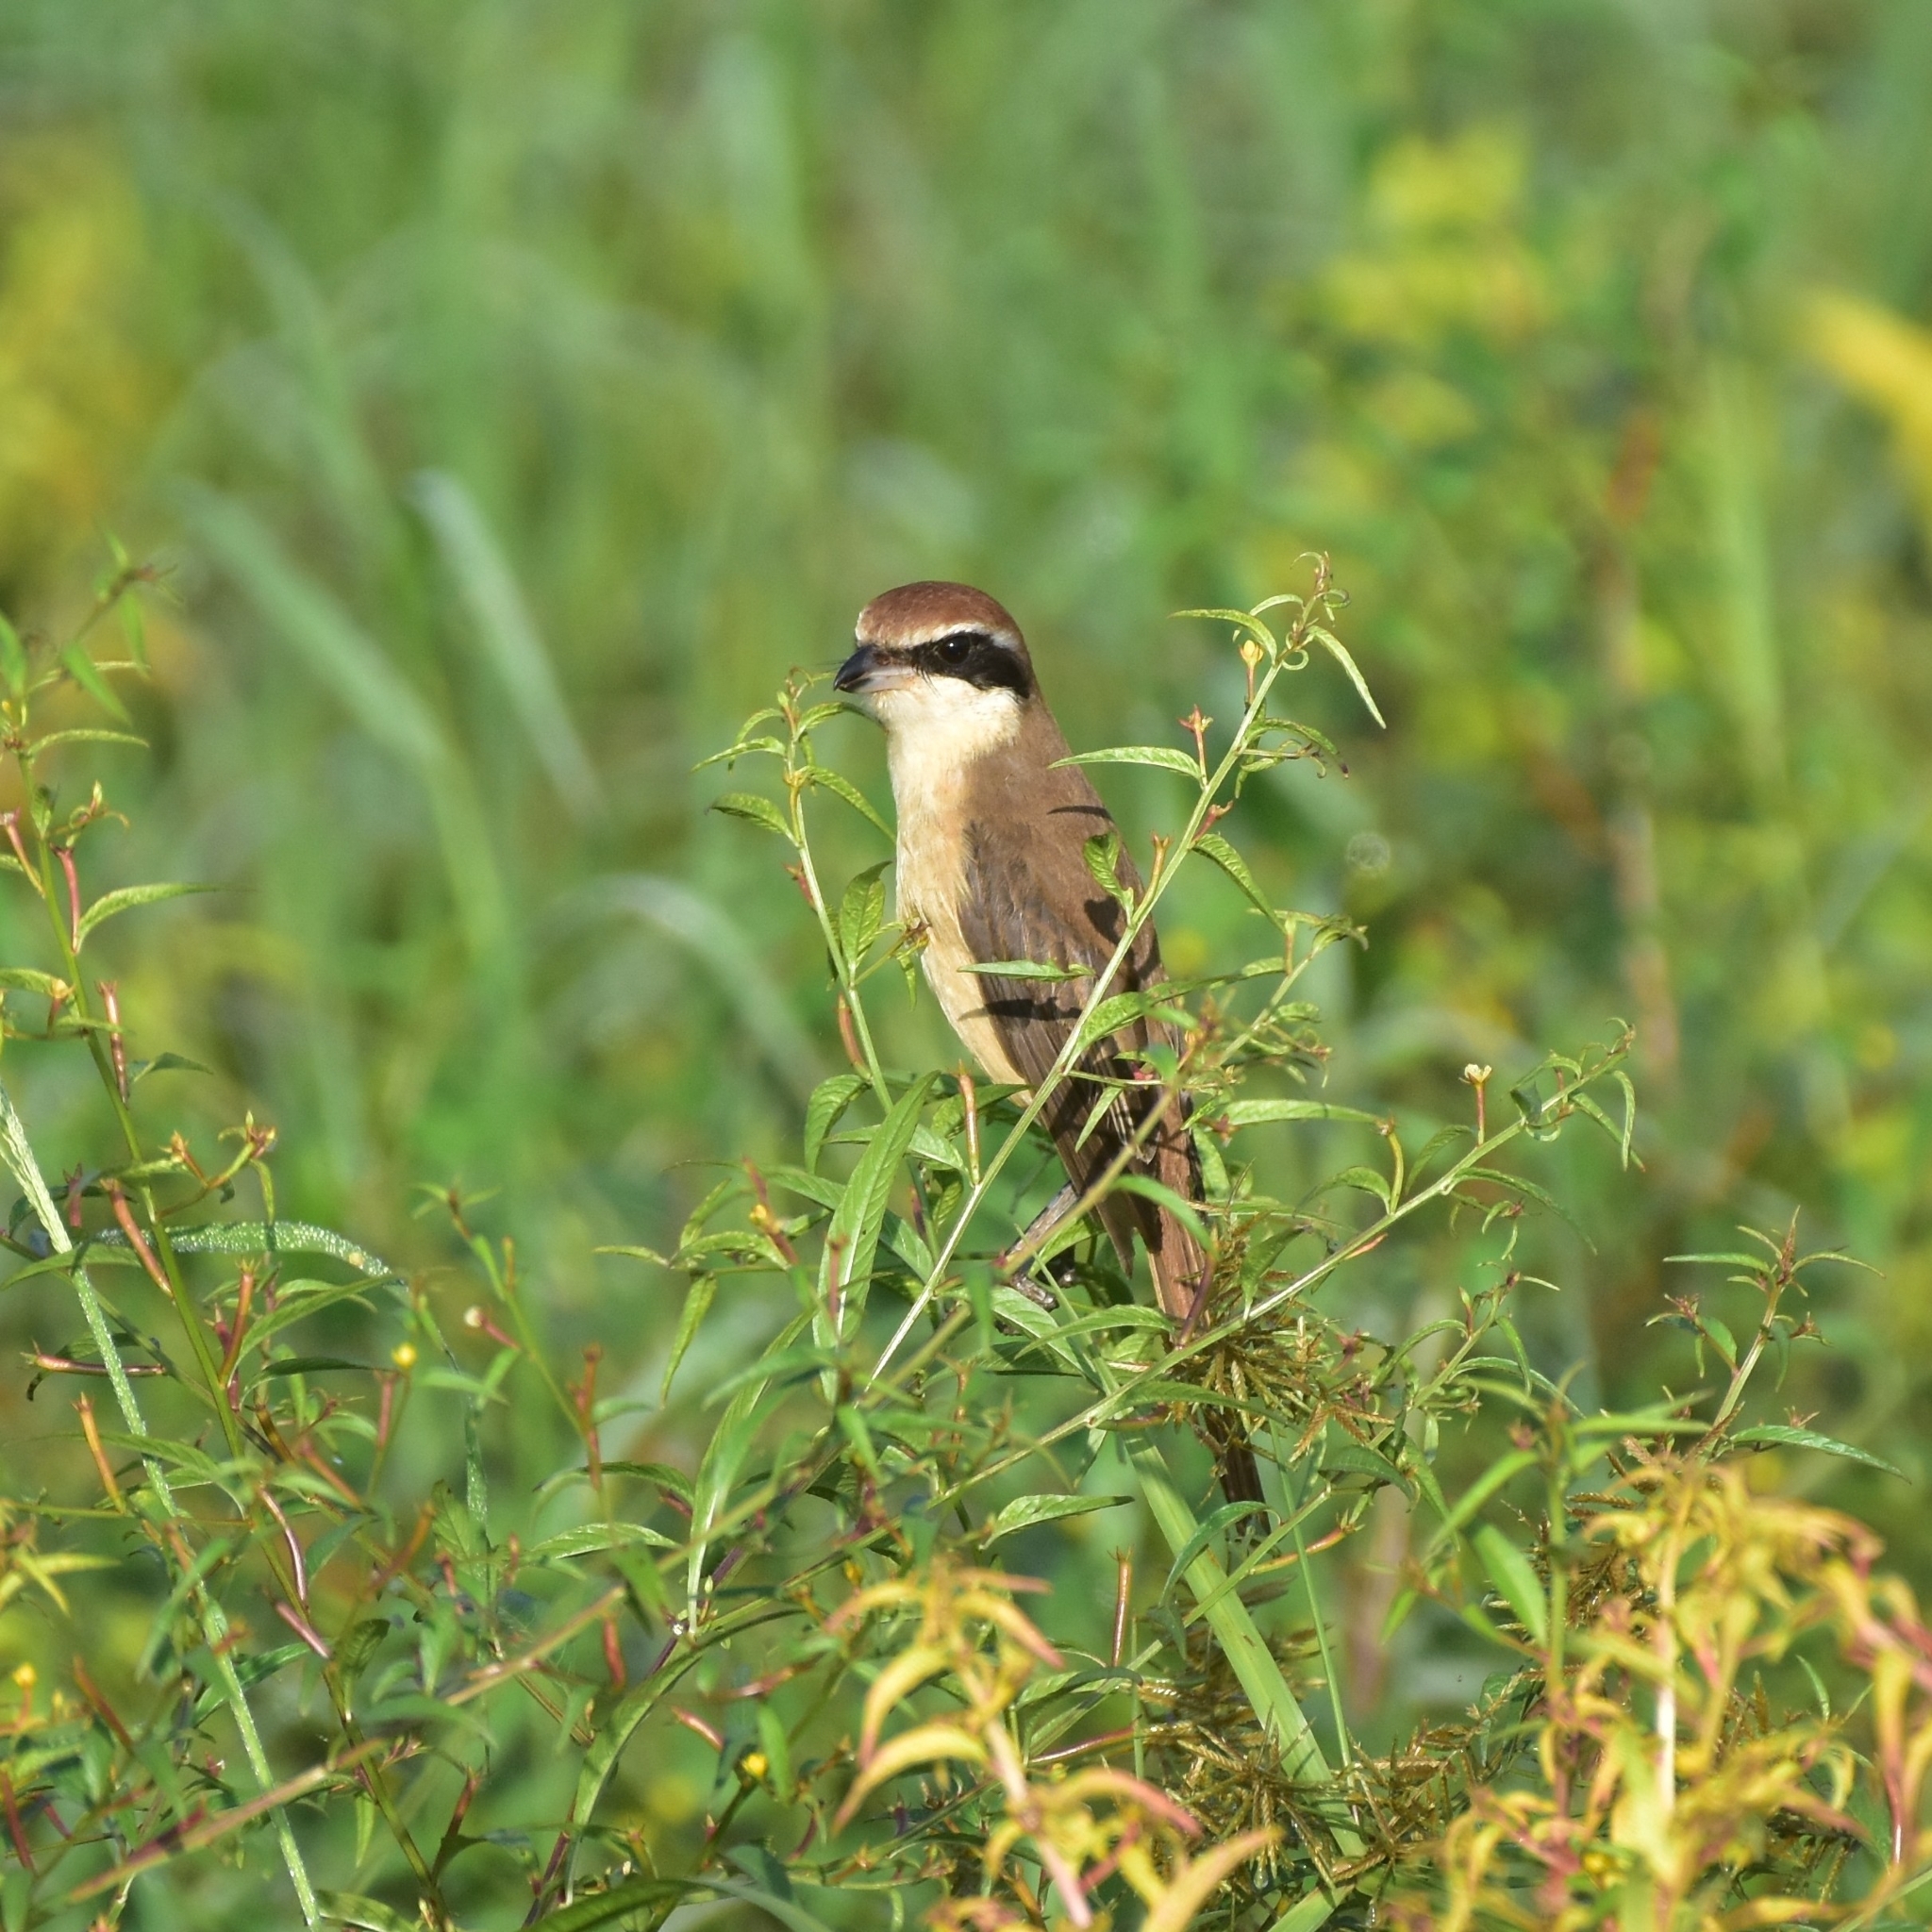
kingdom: Animalia
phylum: Chordata
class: Aves
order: Passeriformes
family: Laniidae
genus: Lanius
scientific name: Lanius cristatus
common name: Brown shrike
